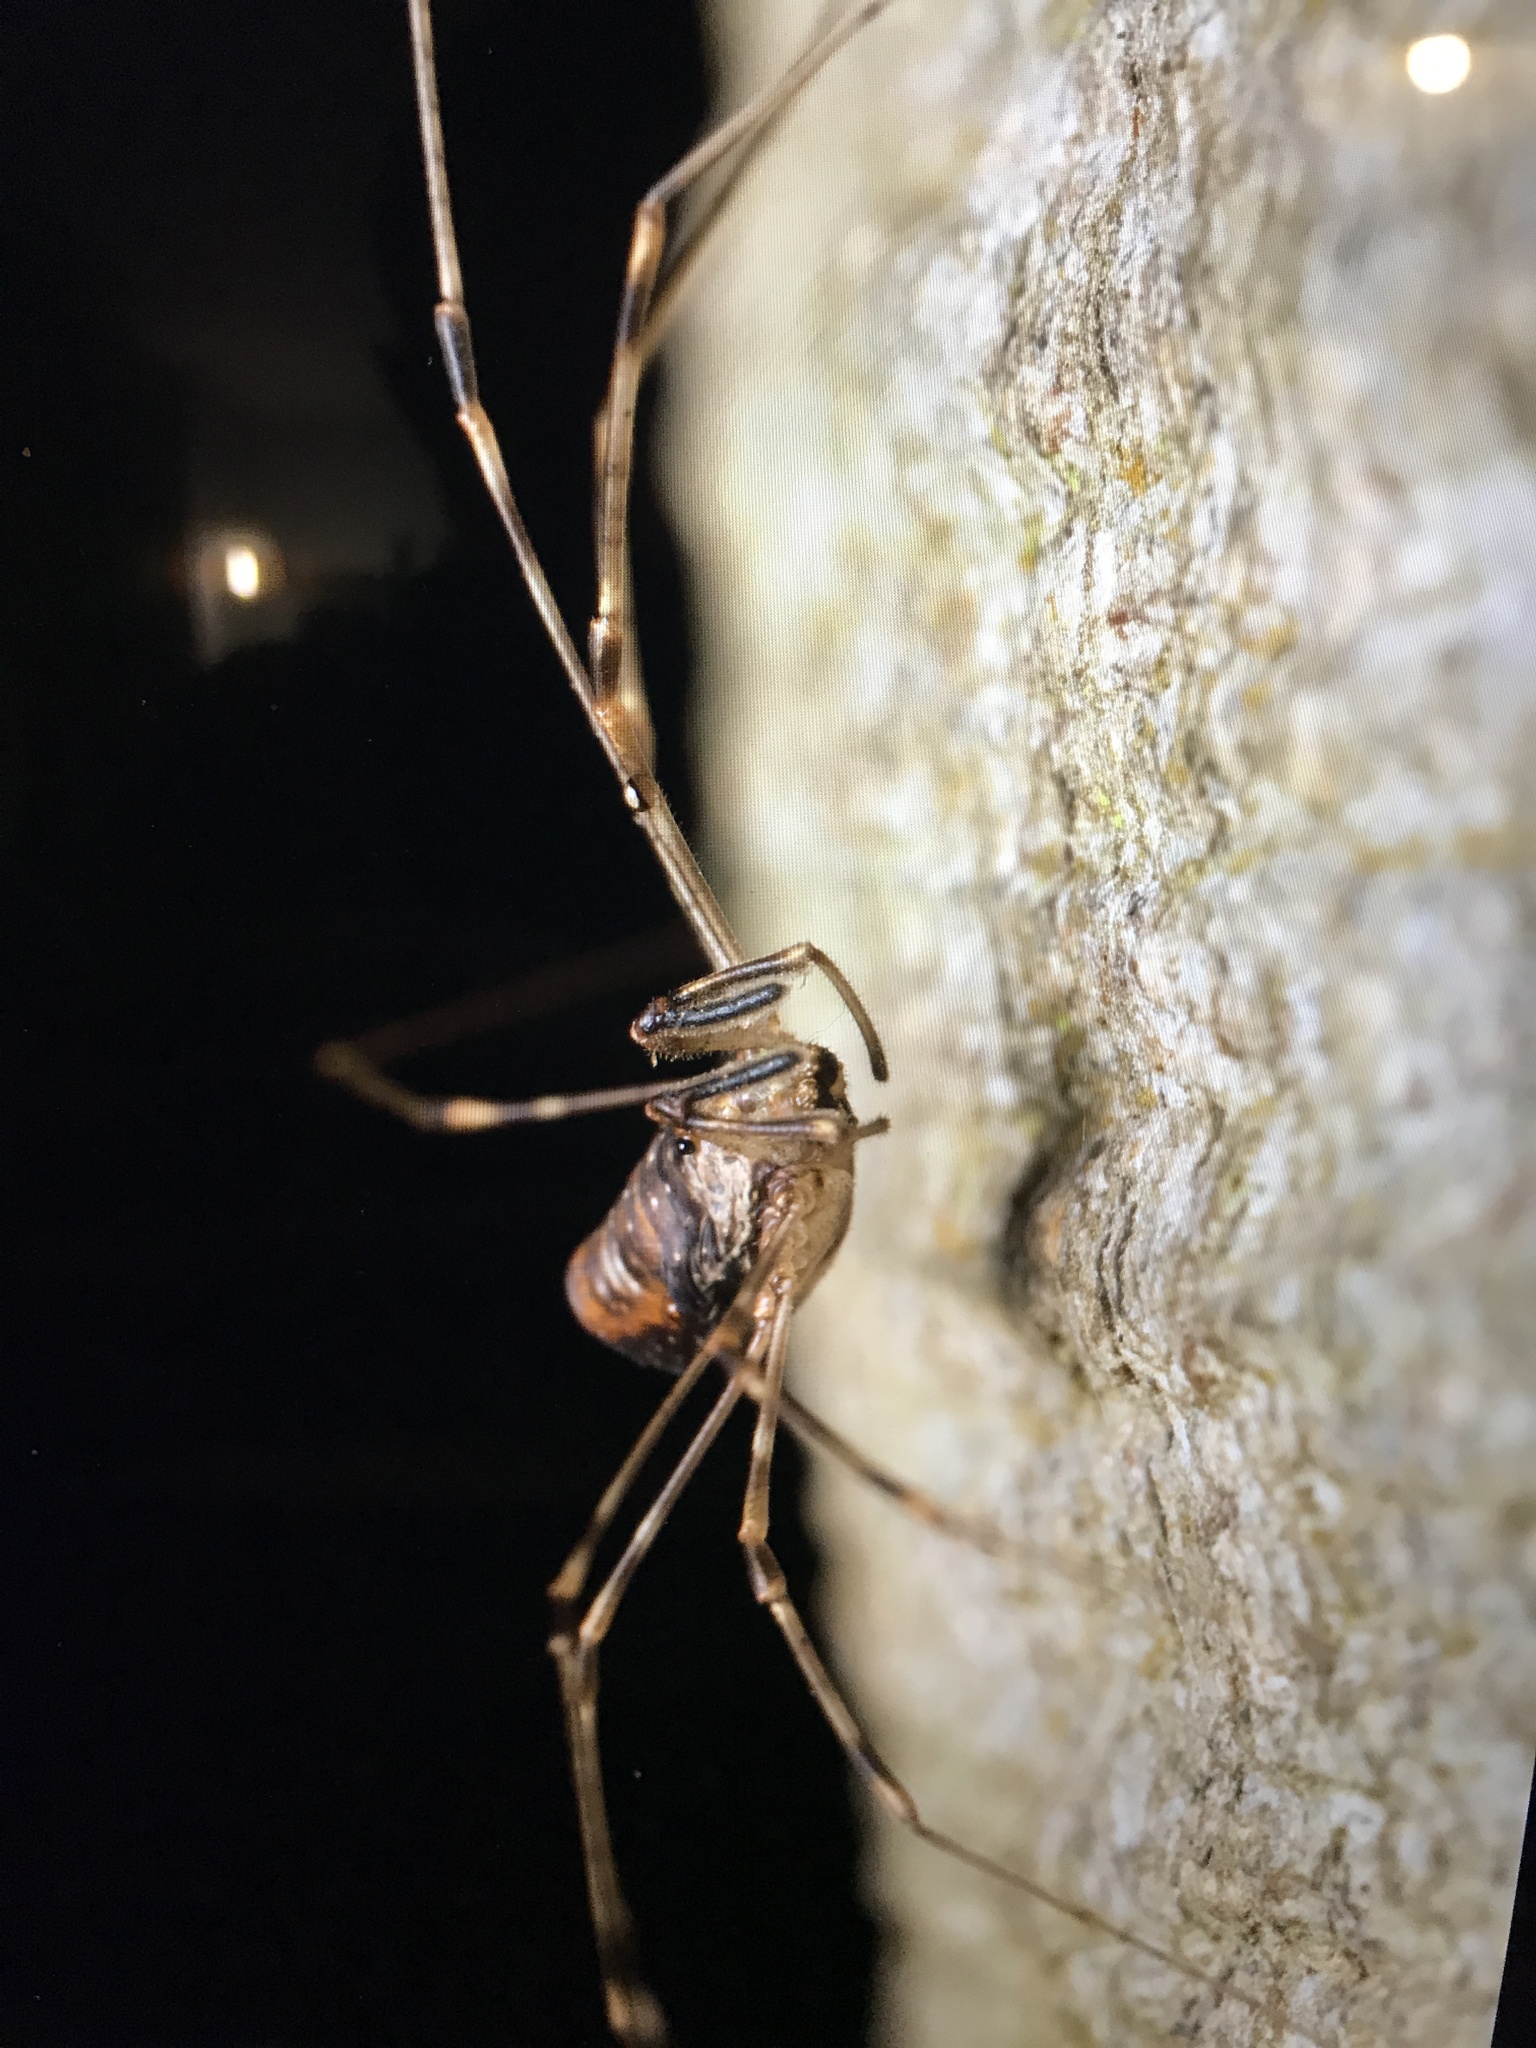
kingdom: Animalia
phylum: Arthropoda
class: Arachnida
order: Opiliones
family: Phalangiidae
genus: Dicranopalpus
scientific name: Dicranopalpus ramosus
